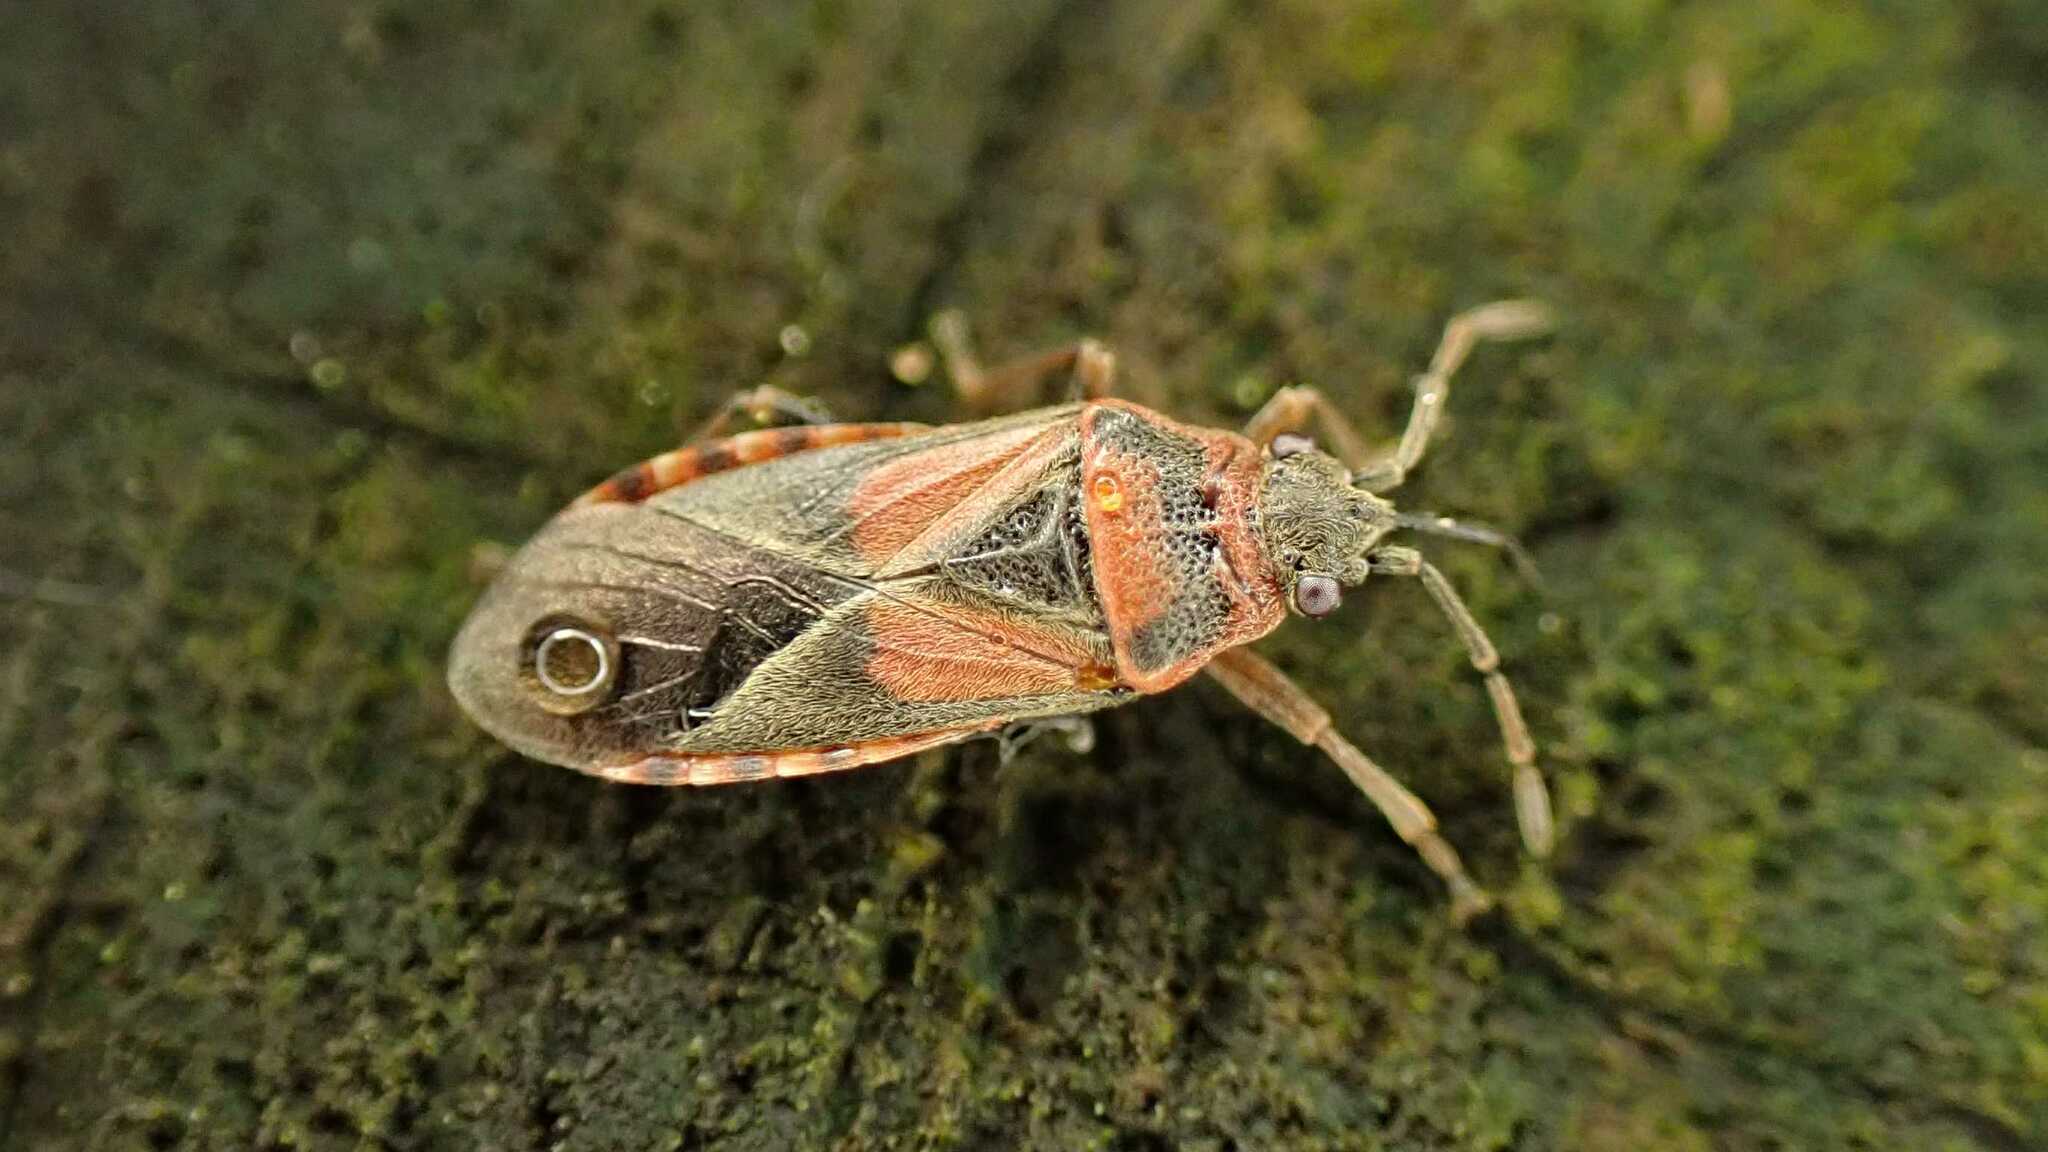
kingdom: Animalia
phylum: Arthropoda
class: Insecta
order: Hemiptera
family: Lygaeidae
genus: Arocatus
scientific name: Arocatus melanocephalus
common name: Lygaeid bug
